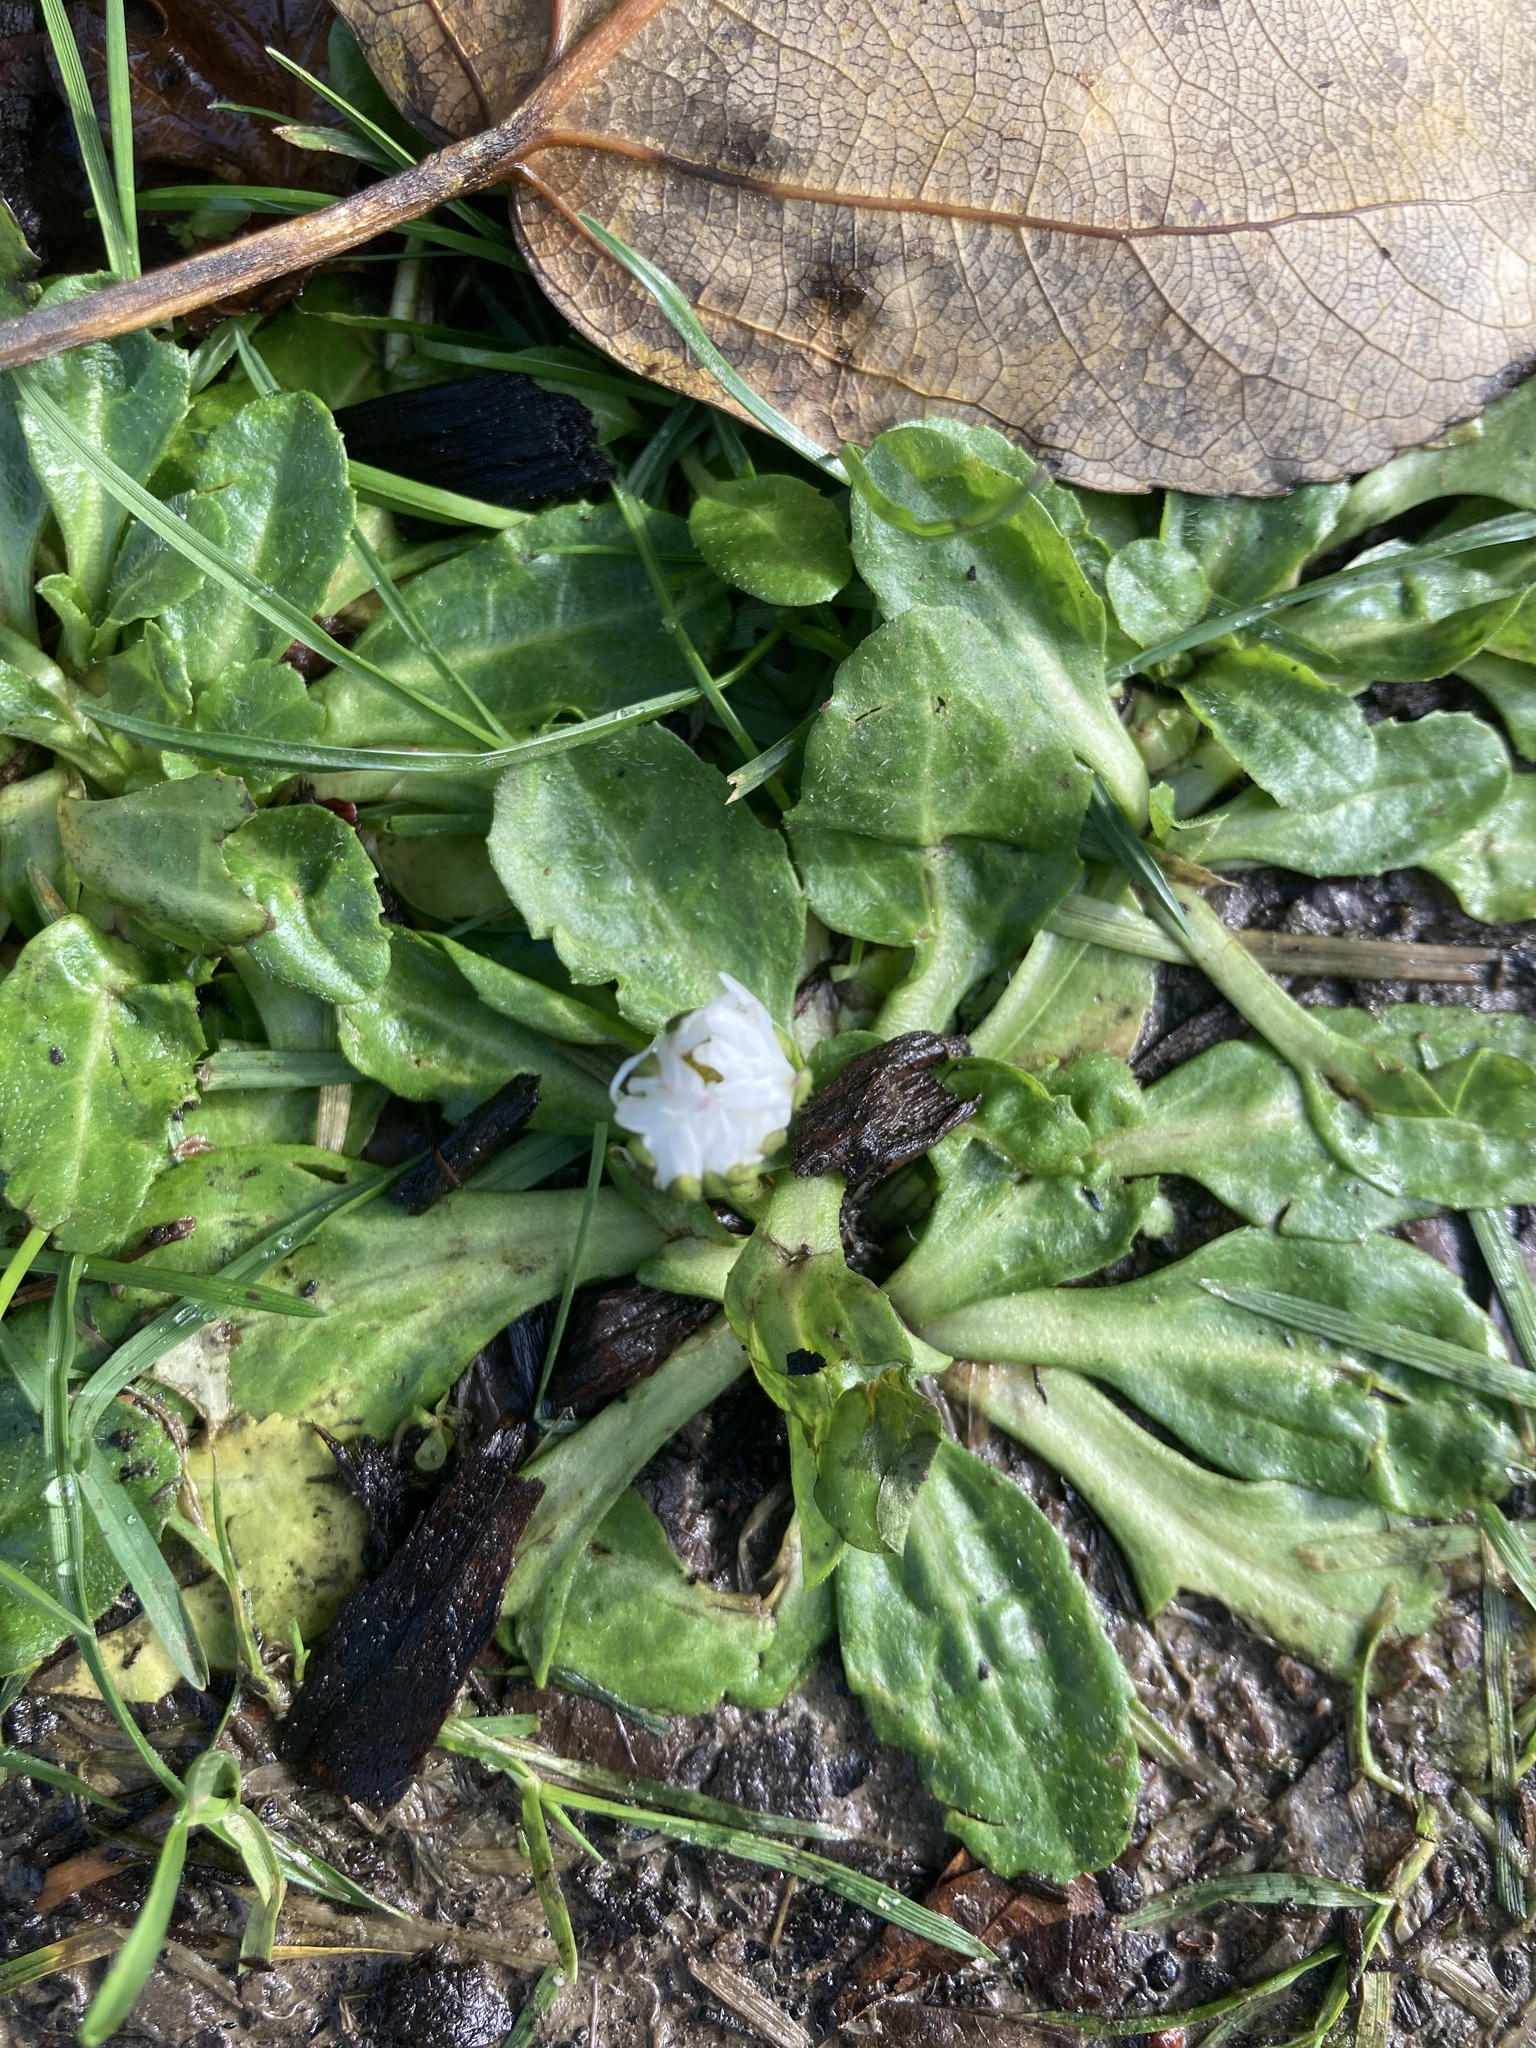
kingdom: Plantae
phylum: Tracheophyta
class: Magnoliopsida
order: Asterales
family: Asteraceae
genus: Bellis
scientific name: Bellis perennis
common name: Lawndaisy
